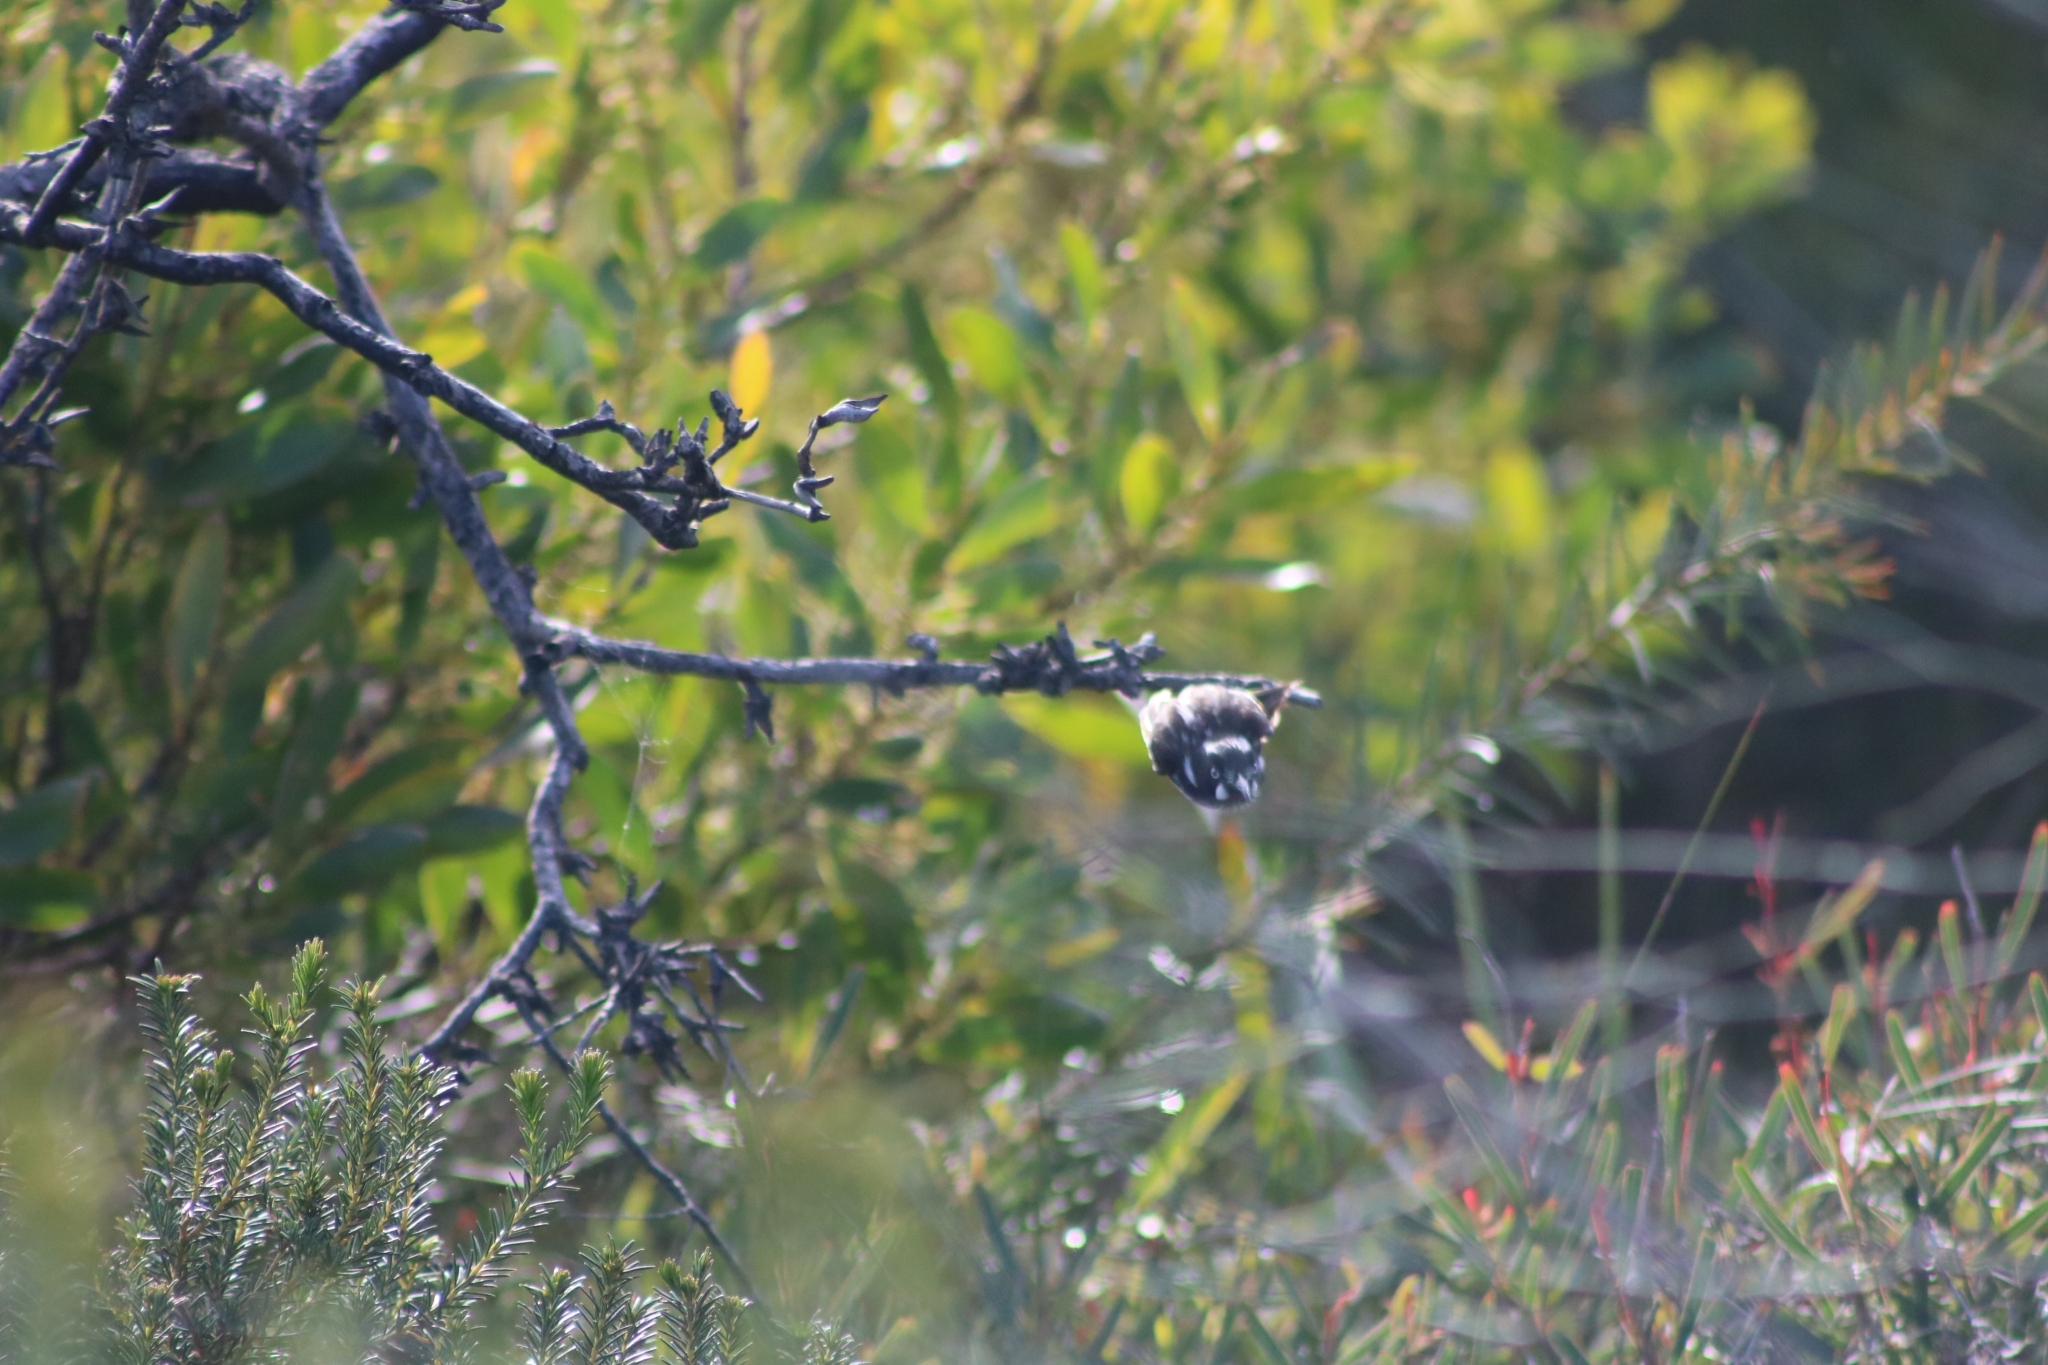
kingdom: Animalia
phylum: Chordata
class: Aves
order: Passeriformes
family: Meliphagidae
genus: Phylidonyris
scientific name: Phylidonyris novaehollandiae
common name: New holland honeyeater
